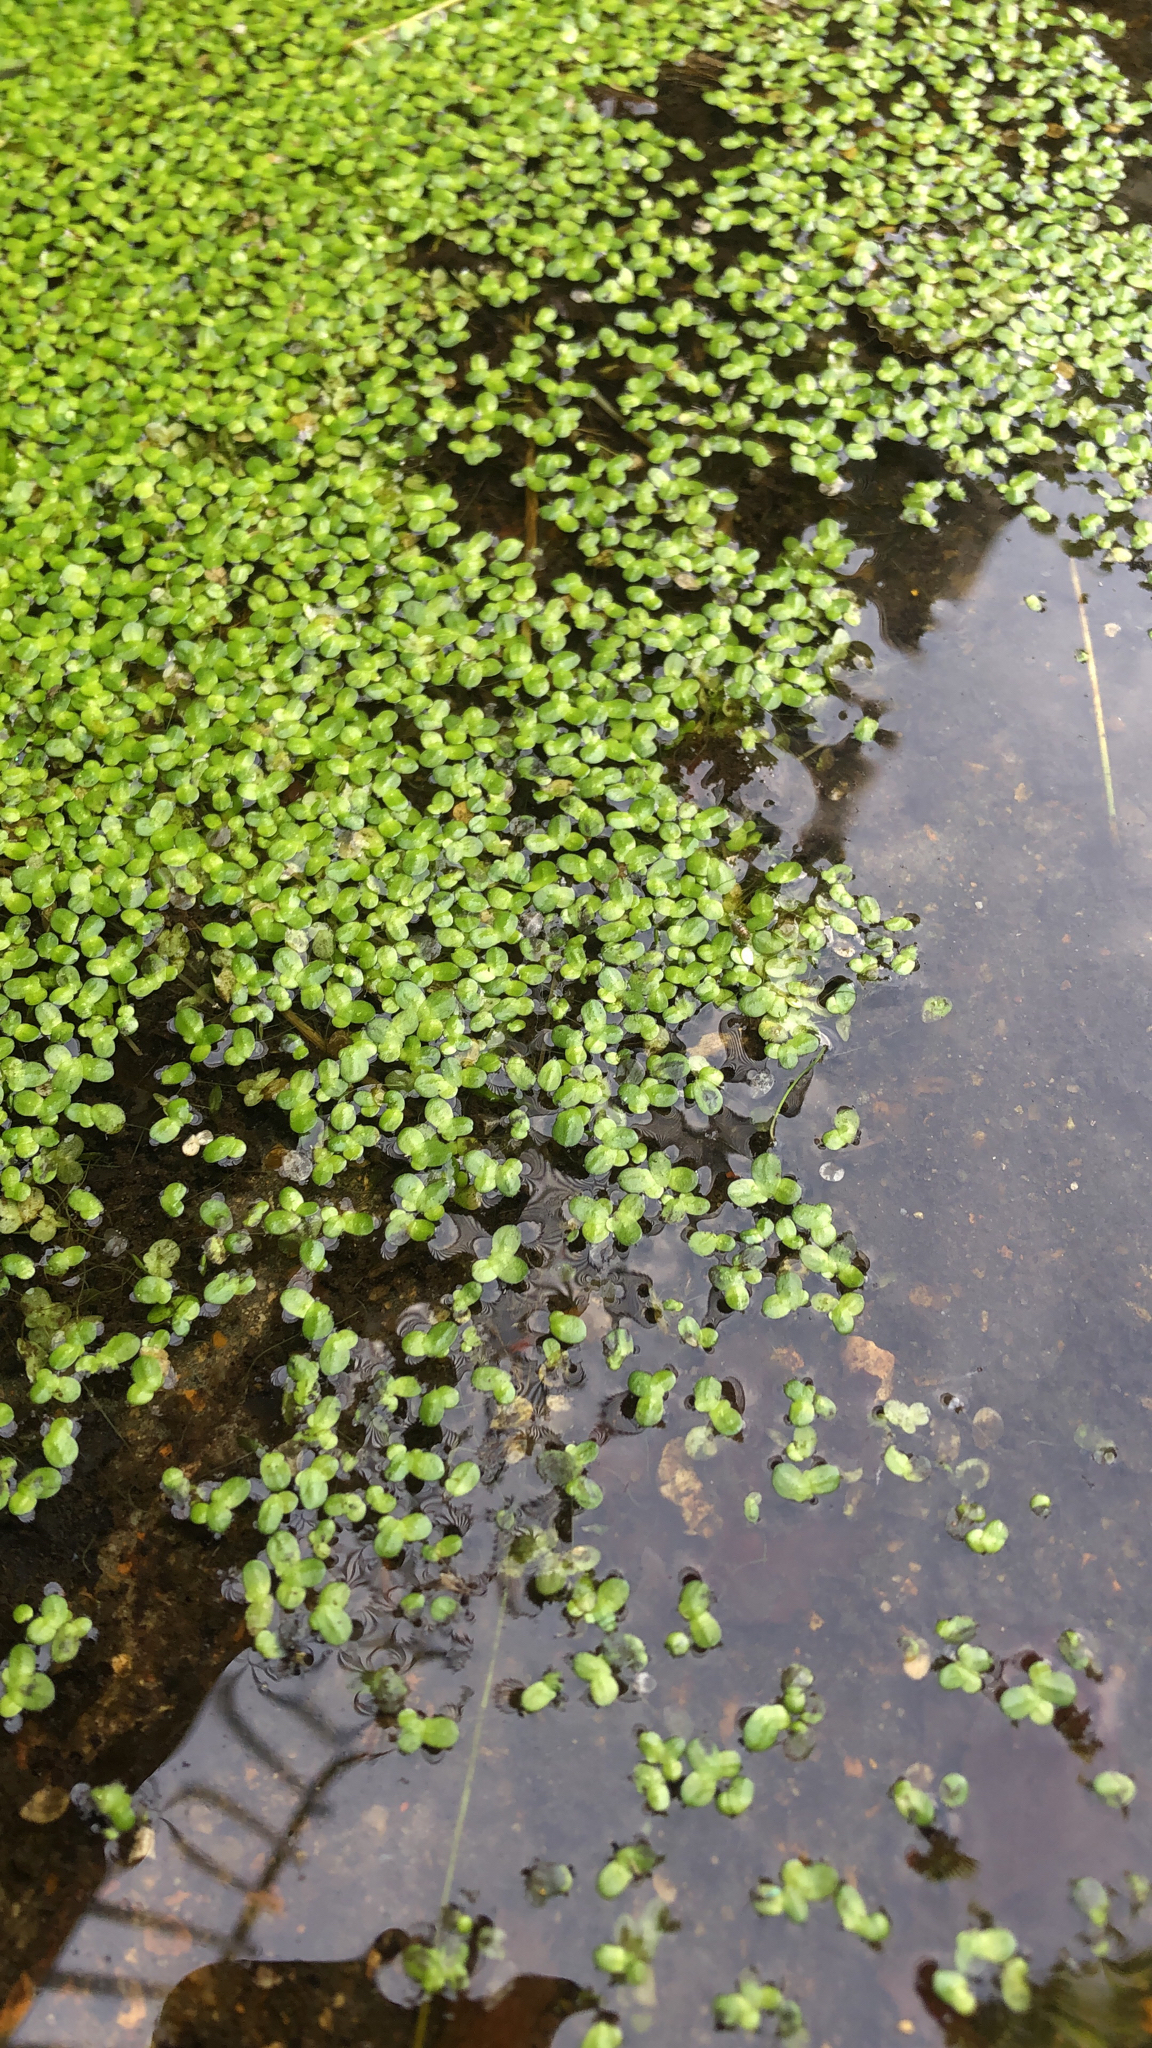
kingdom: Plantae
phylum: Tracheophyta
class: Liliopsida
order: Alismatales
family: Araceae
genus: Lemna
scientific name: Lemna minor
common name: Common duckweed
